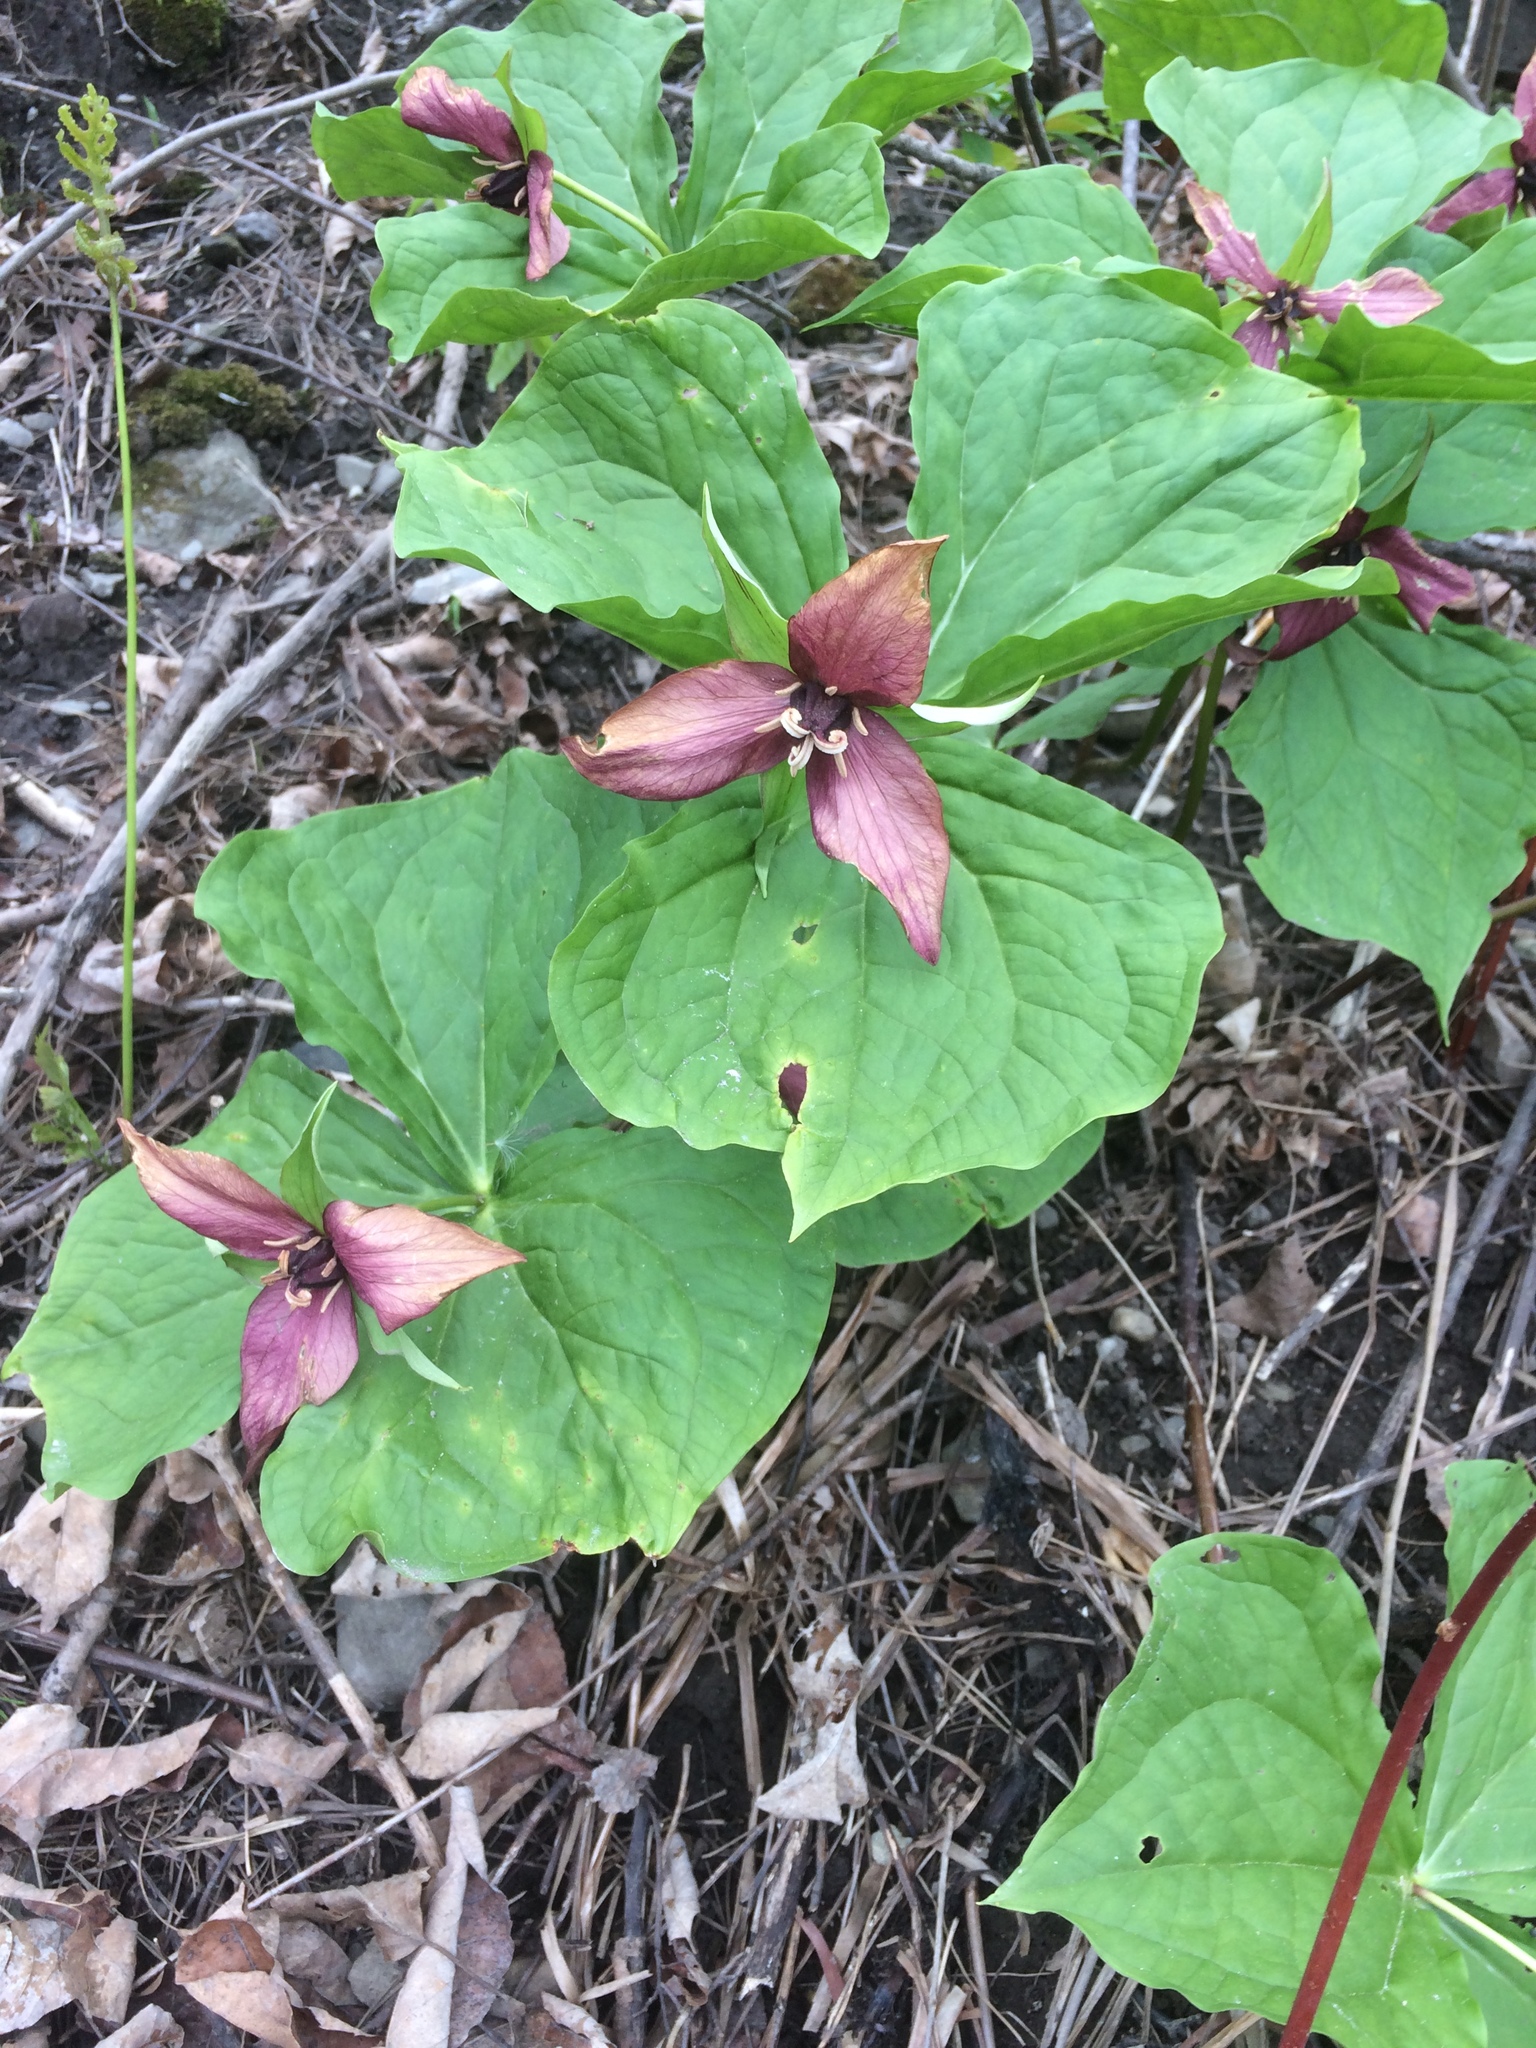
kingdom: Plantae
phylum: Tracheophyta
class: Liliopsida
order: Liliales
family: Melanthiaceae
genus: Trillium
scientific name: Trillium erectum
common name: Purple trillium
